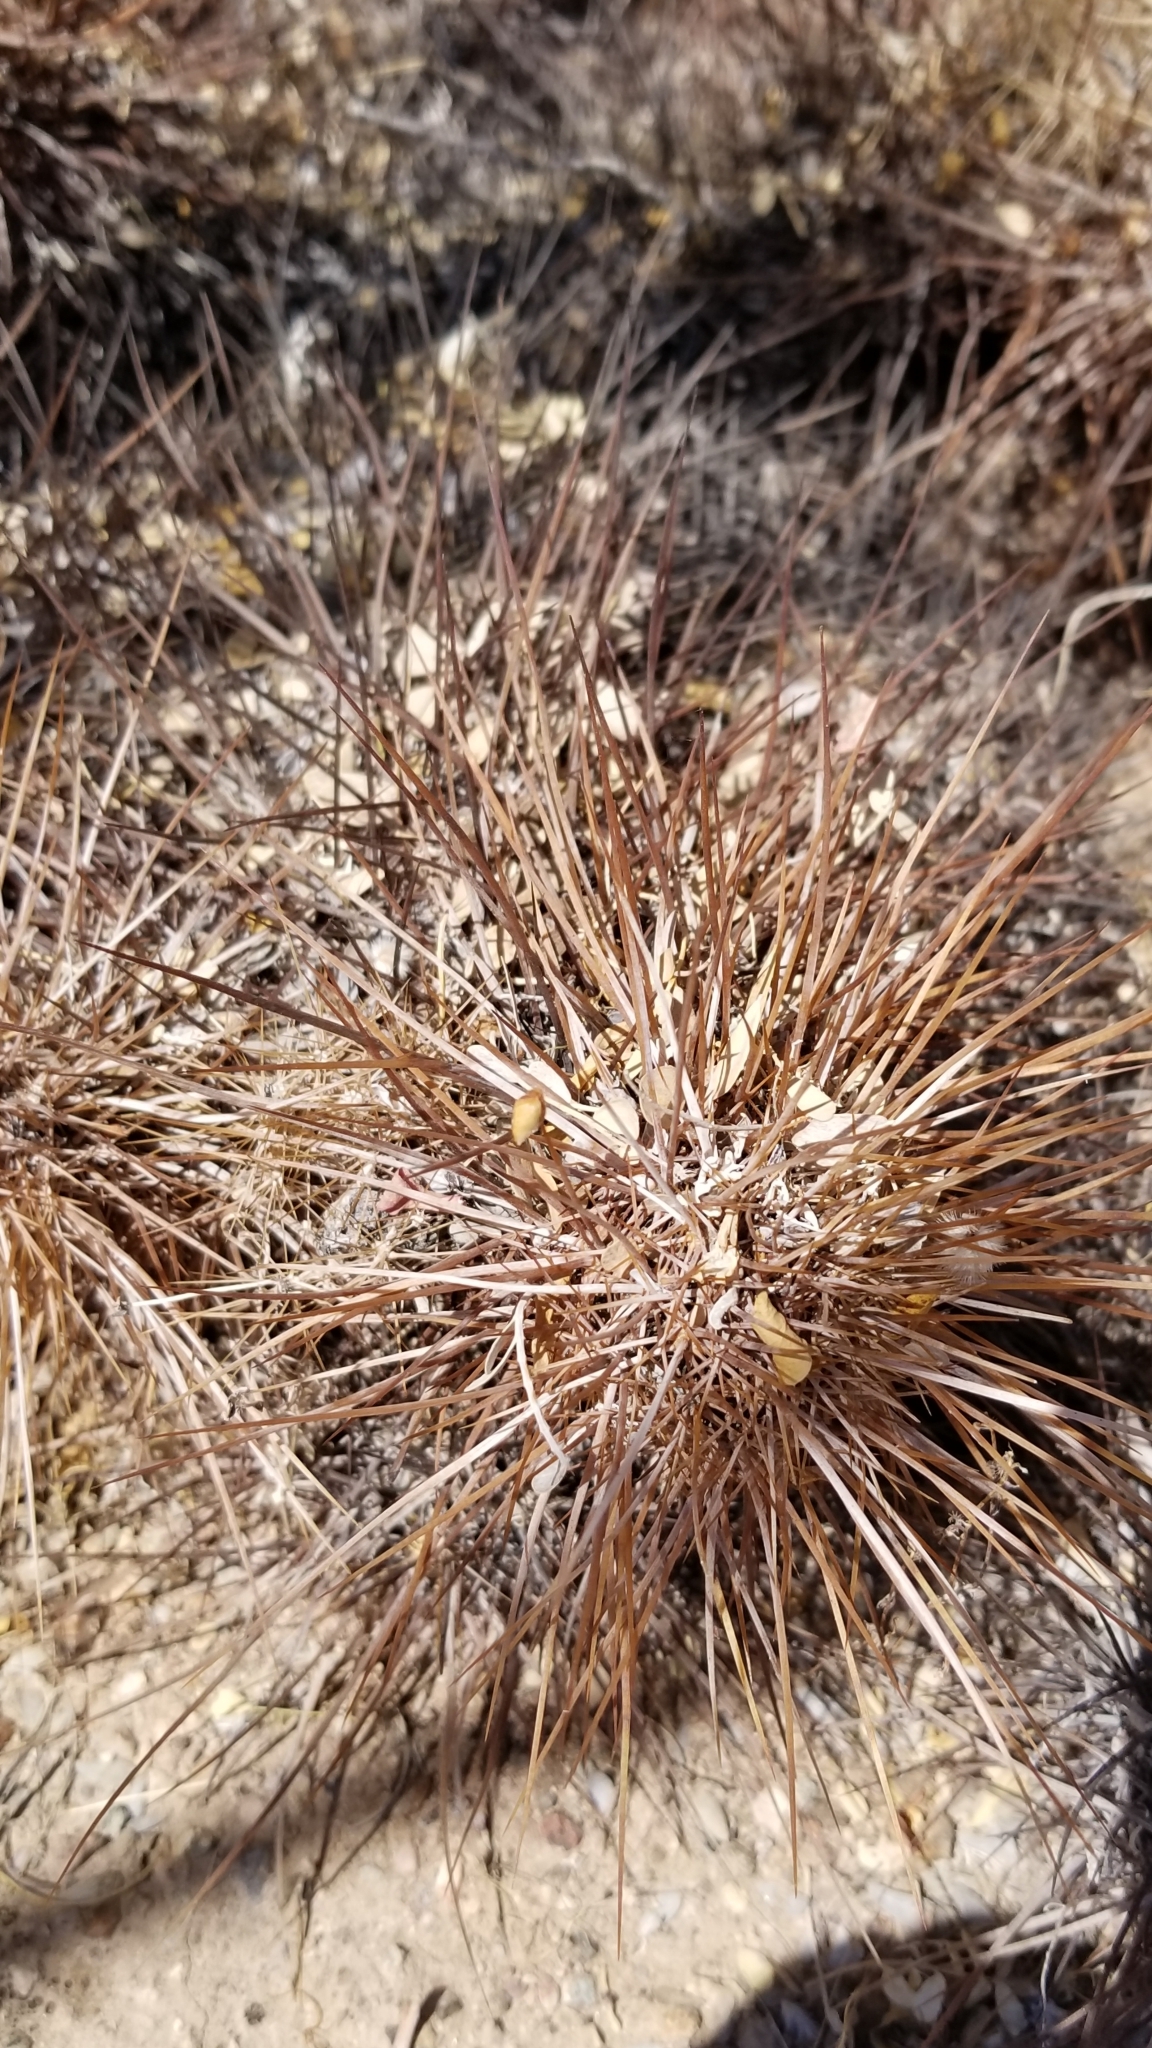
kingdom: Plantae
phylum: Tracheophyta
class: Magnoliopsida
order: Caryophyllales
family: Cactaceae
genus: Echinocereus
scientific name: Echinocereus engelmannii
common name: Engelmann's hedgehog cactus
